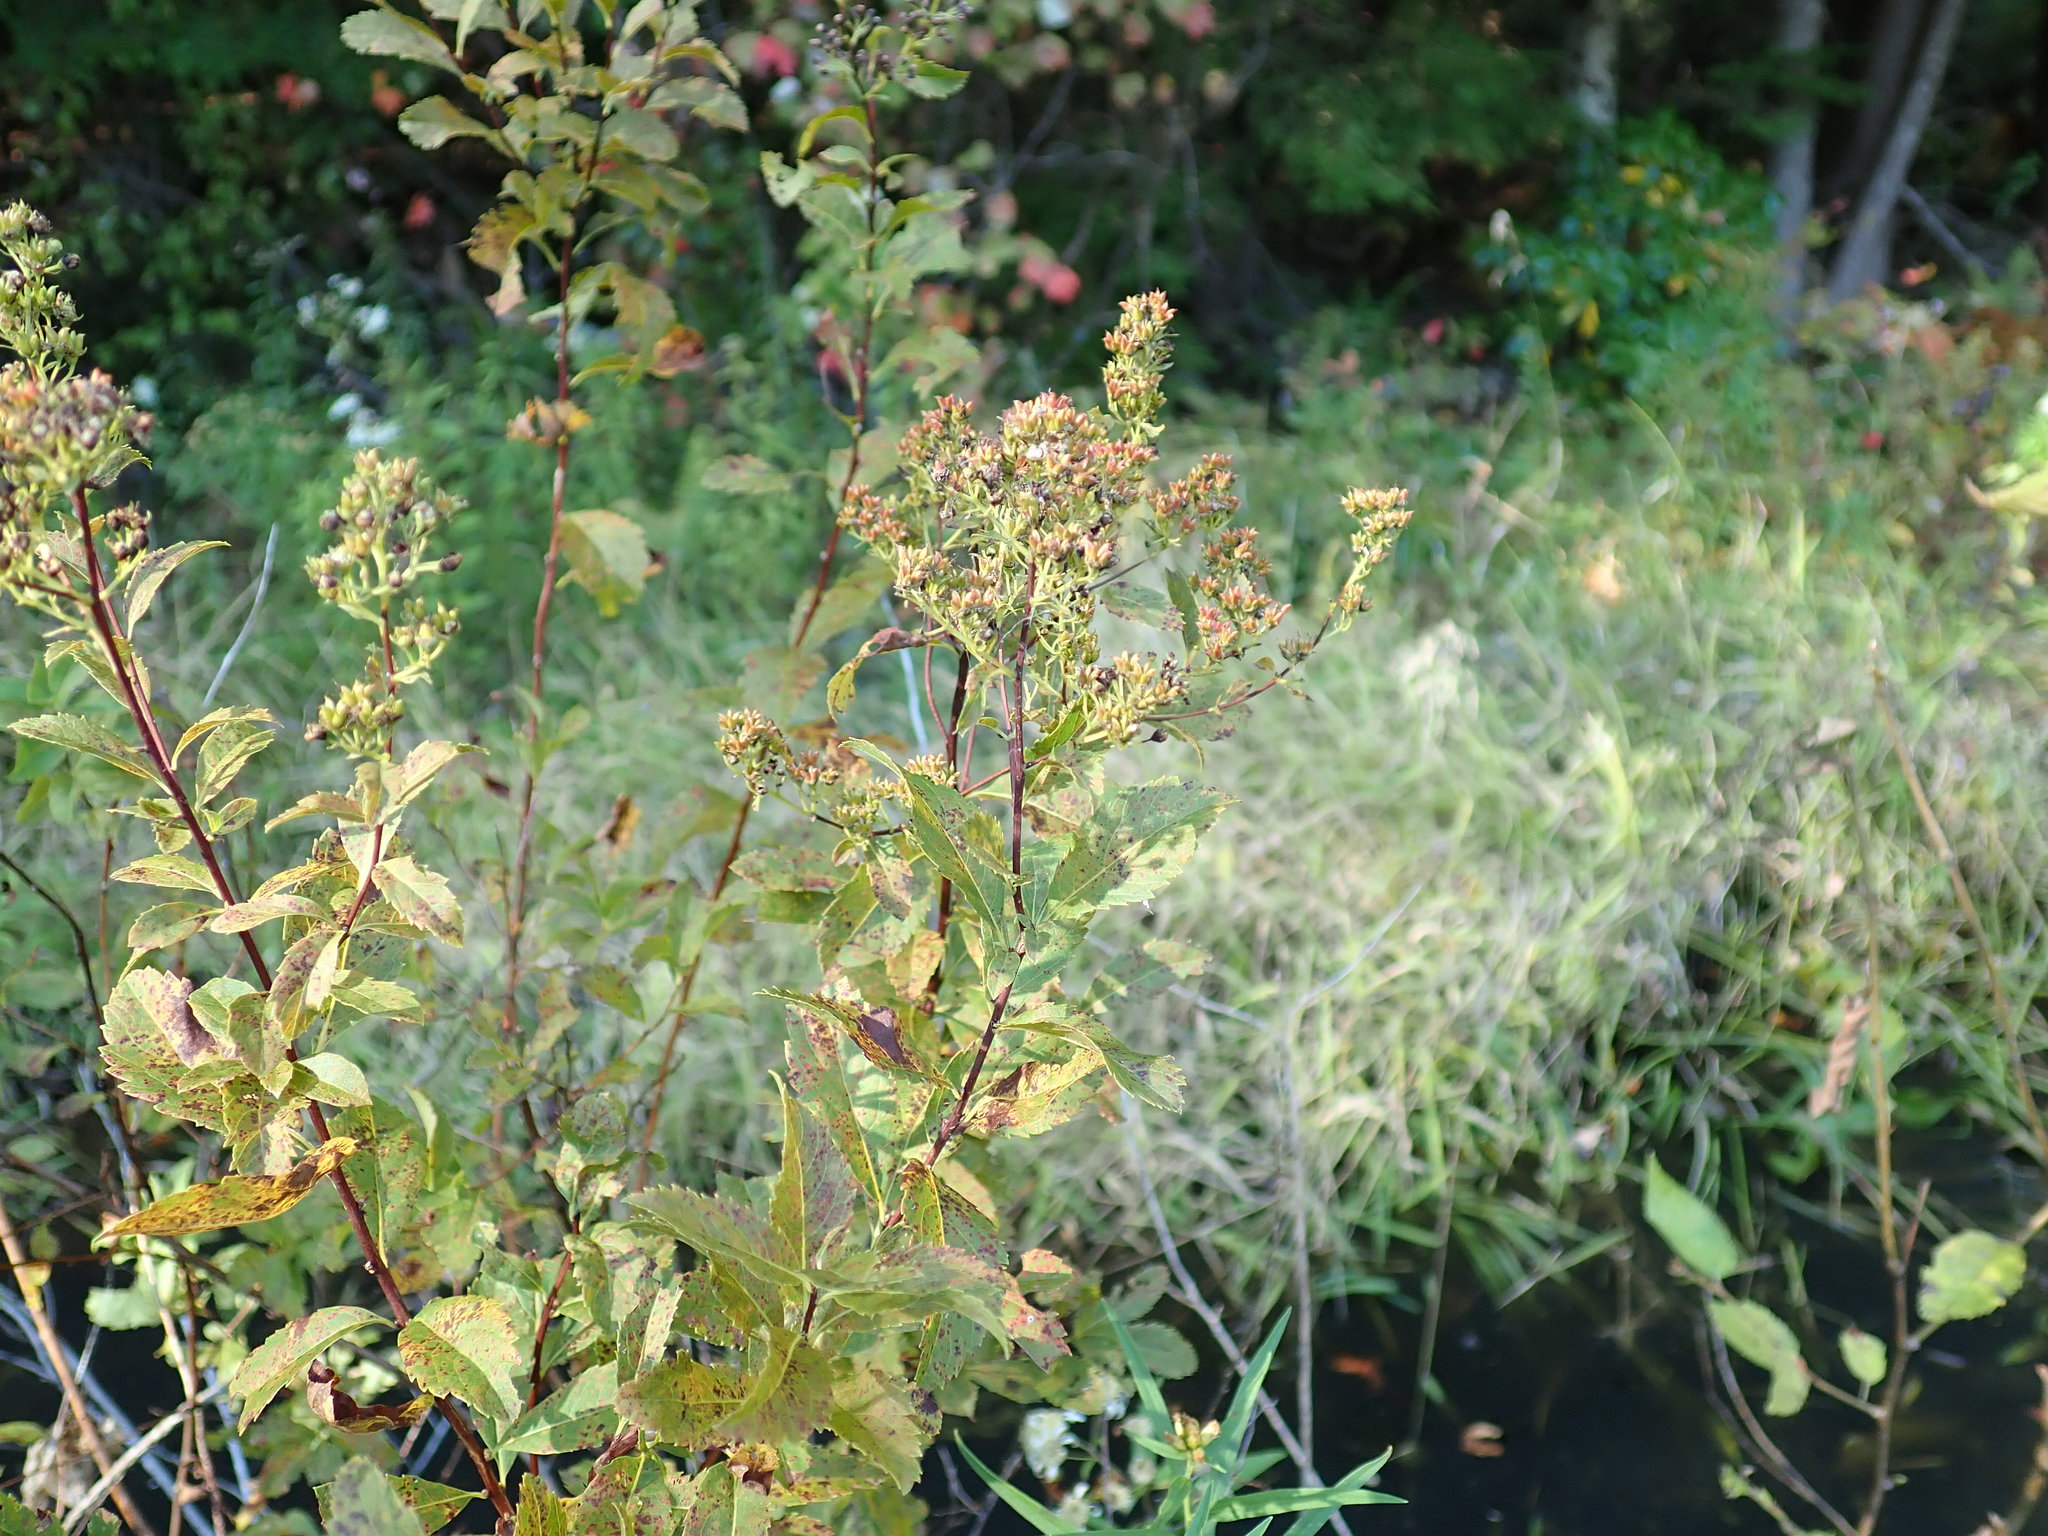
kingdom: Plantae
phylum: Tracheophyta
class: Magnoliopsida
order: Rosales
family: Rosaceae
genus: Spiraea
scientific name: Spiraea alba
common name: Pale bridewort
